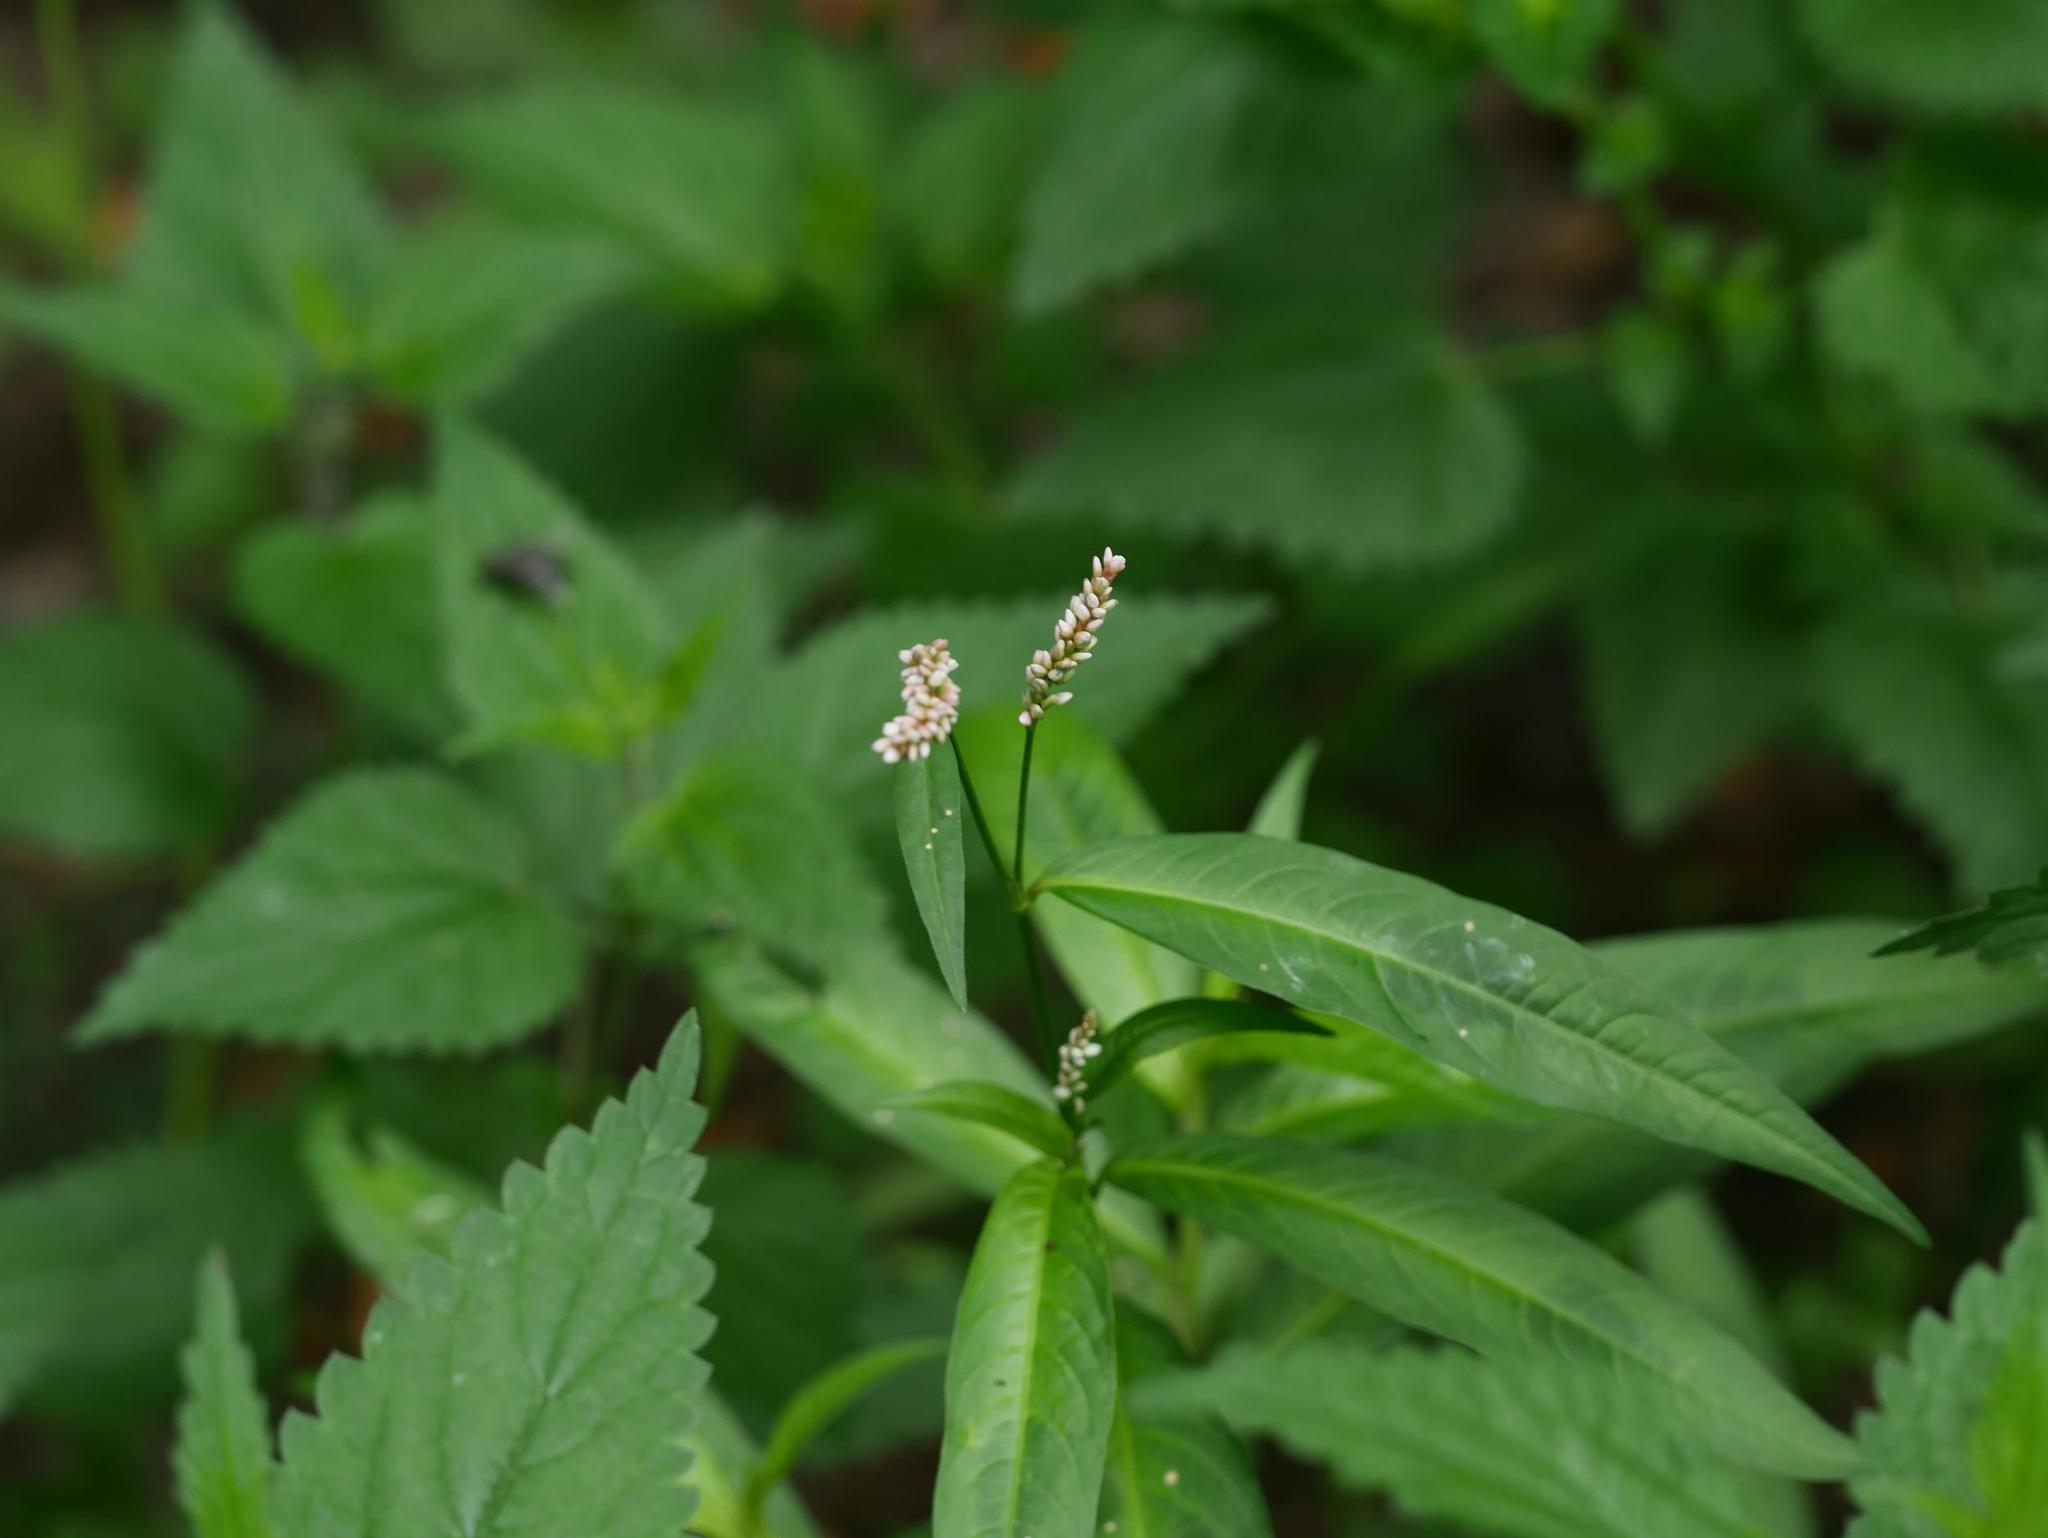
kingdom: Plantae
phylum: Tracheophyta
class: Magnoliopsida
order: Caryophyllales
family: Polygonaceae
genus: Persicaria
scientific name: Persicaria maculosa
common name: Redshank
